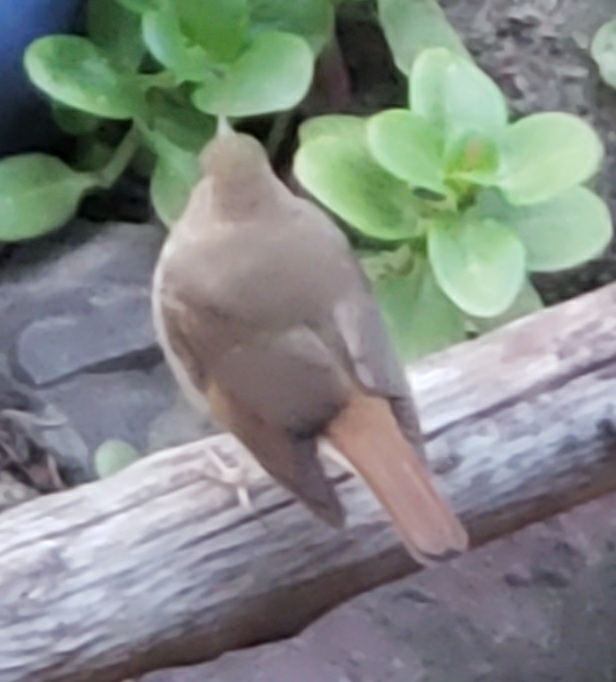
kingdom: Animalia
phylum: Chordata
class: Aves
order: Passeriformes
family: Turdidae
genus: Catharus
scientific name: Catharus guttatus
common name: Hermit thrush
